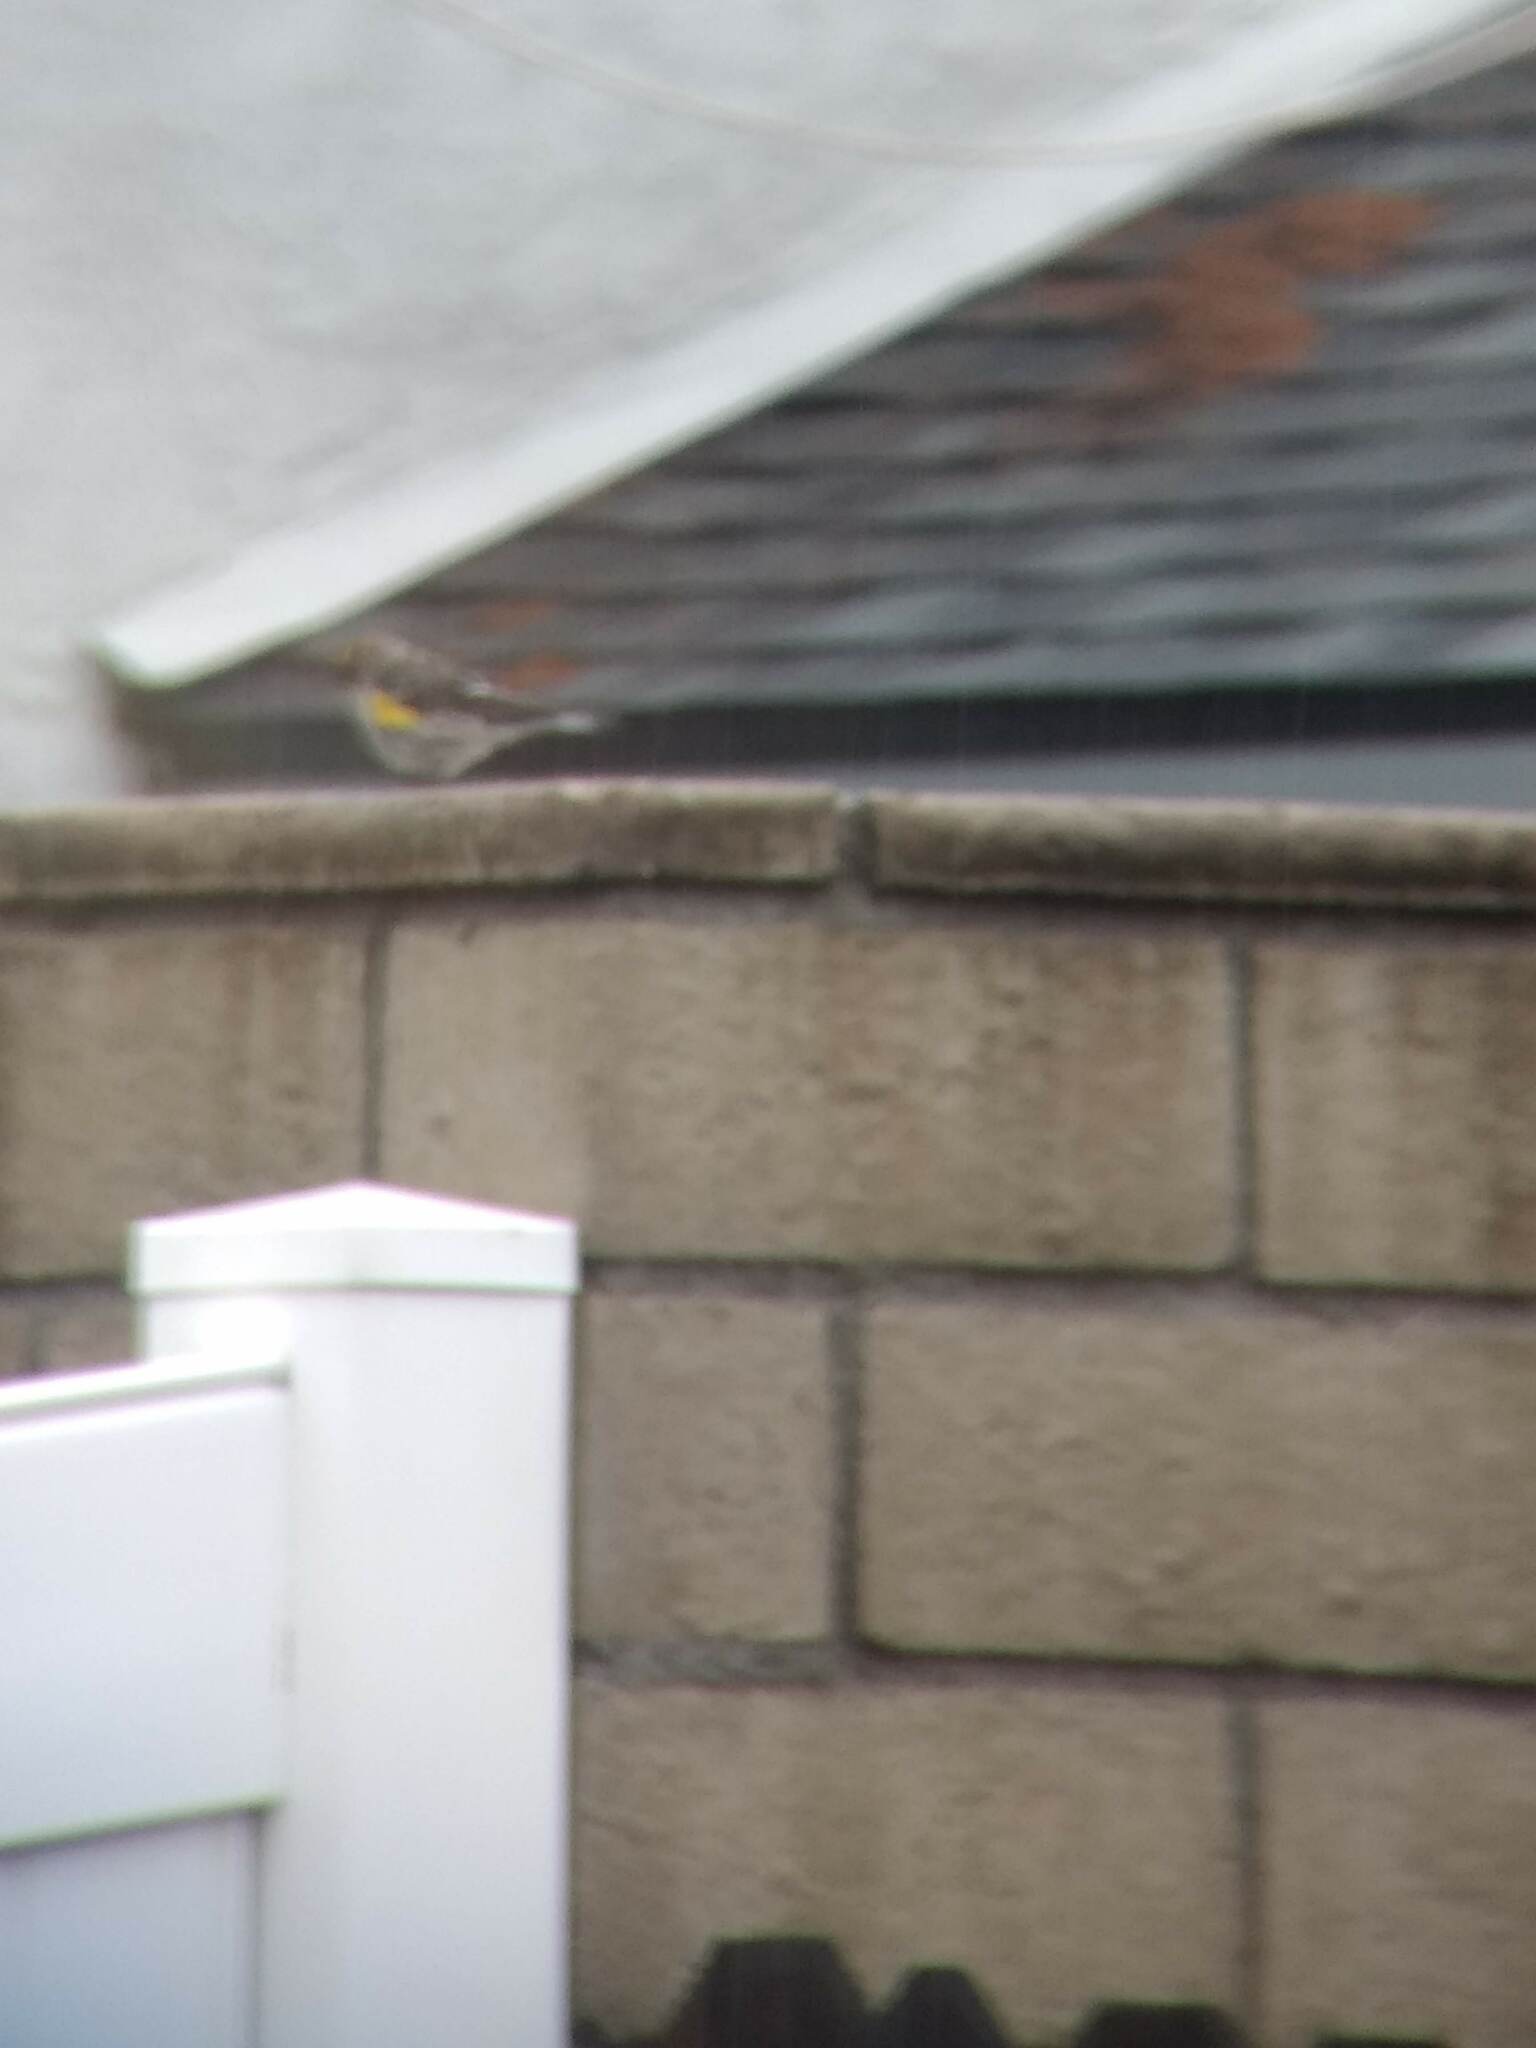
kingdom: Animalia
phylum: Chordata
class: Aves
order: Passeriformes
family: Parulidae
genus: Setophaga
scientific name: Setophaga coronata
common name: Myrtle warbler
